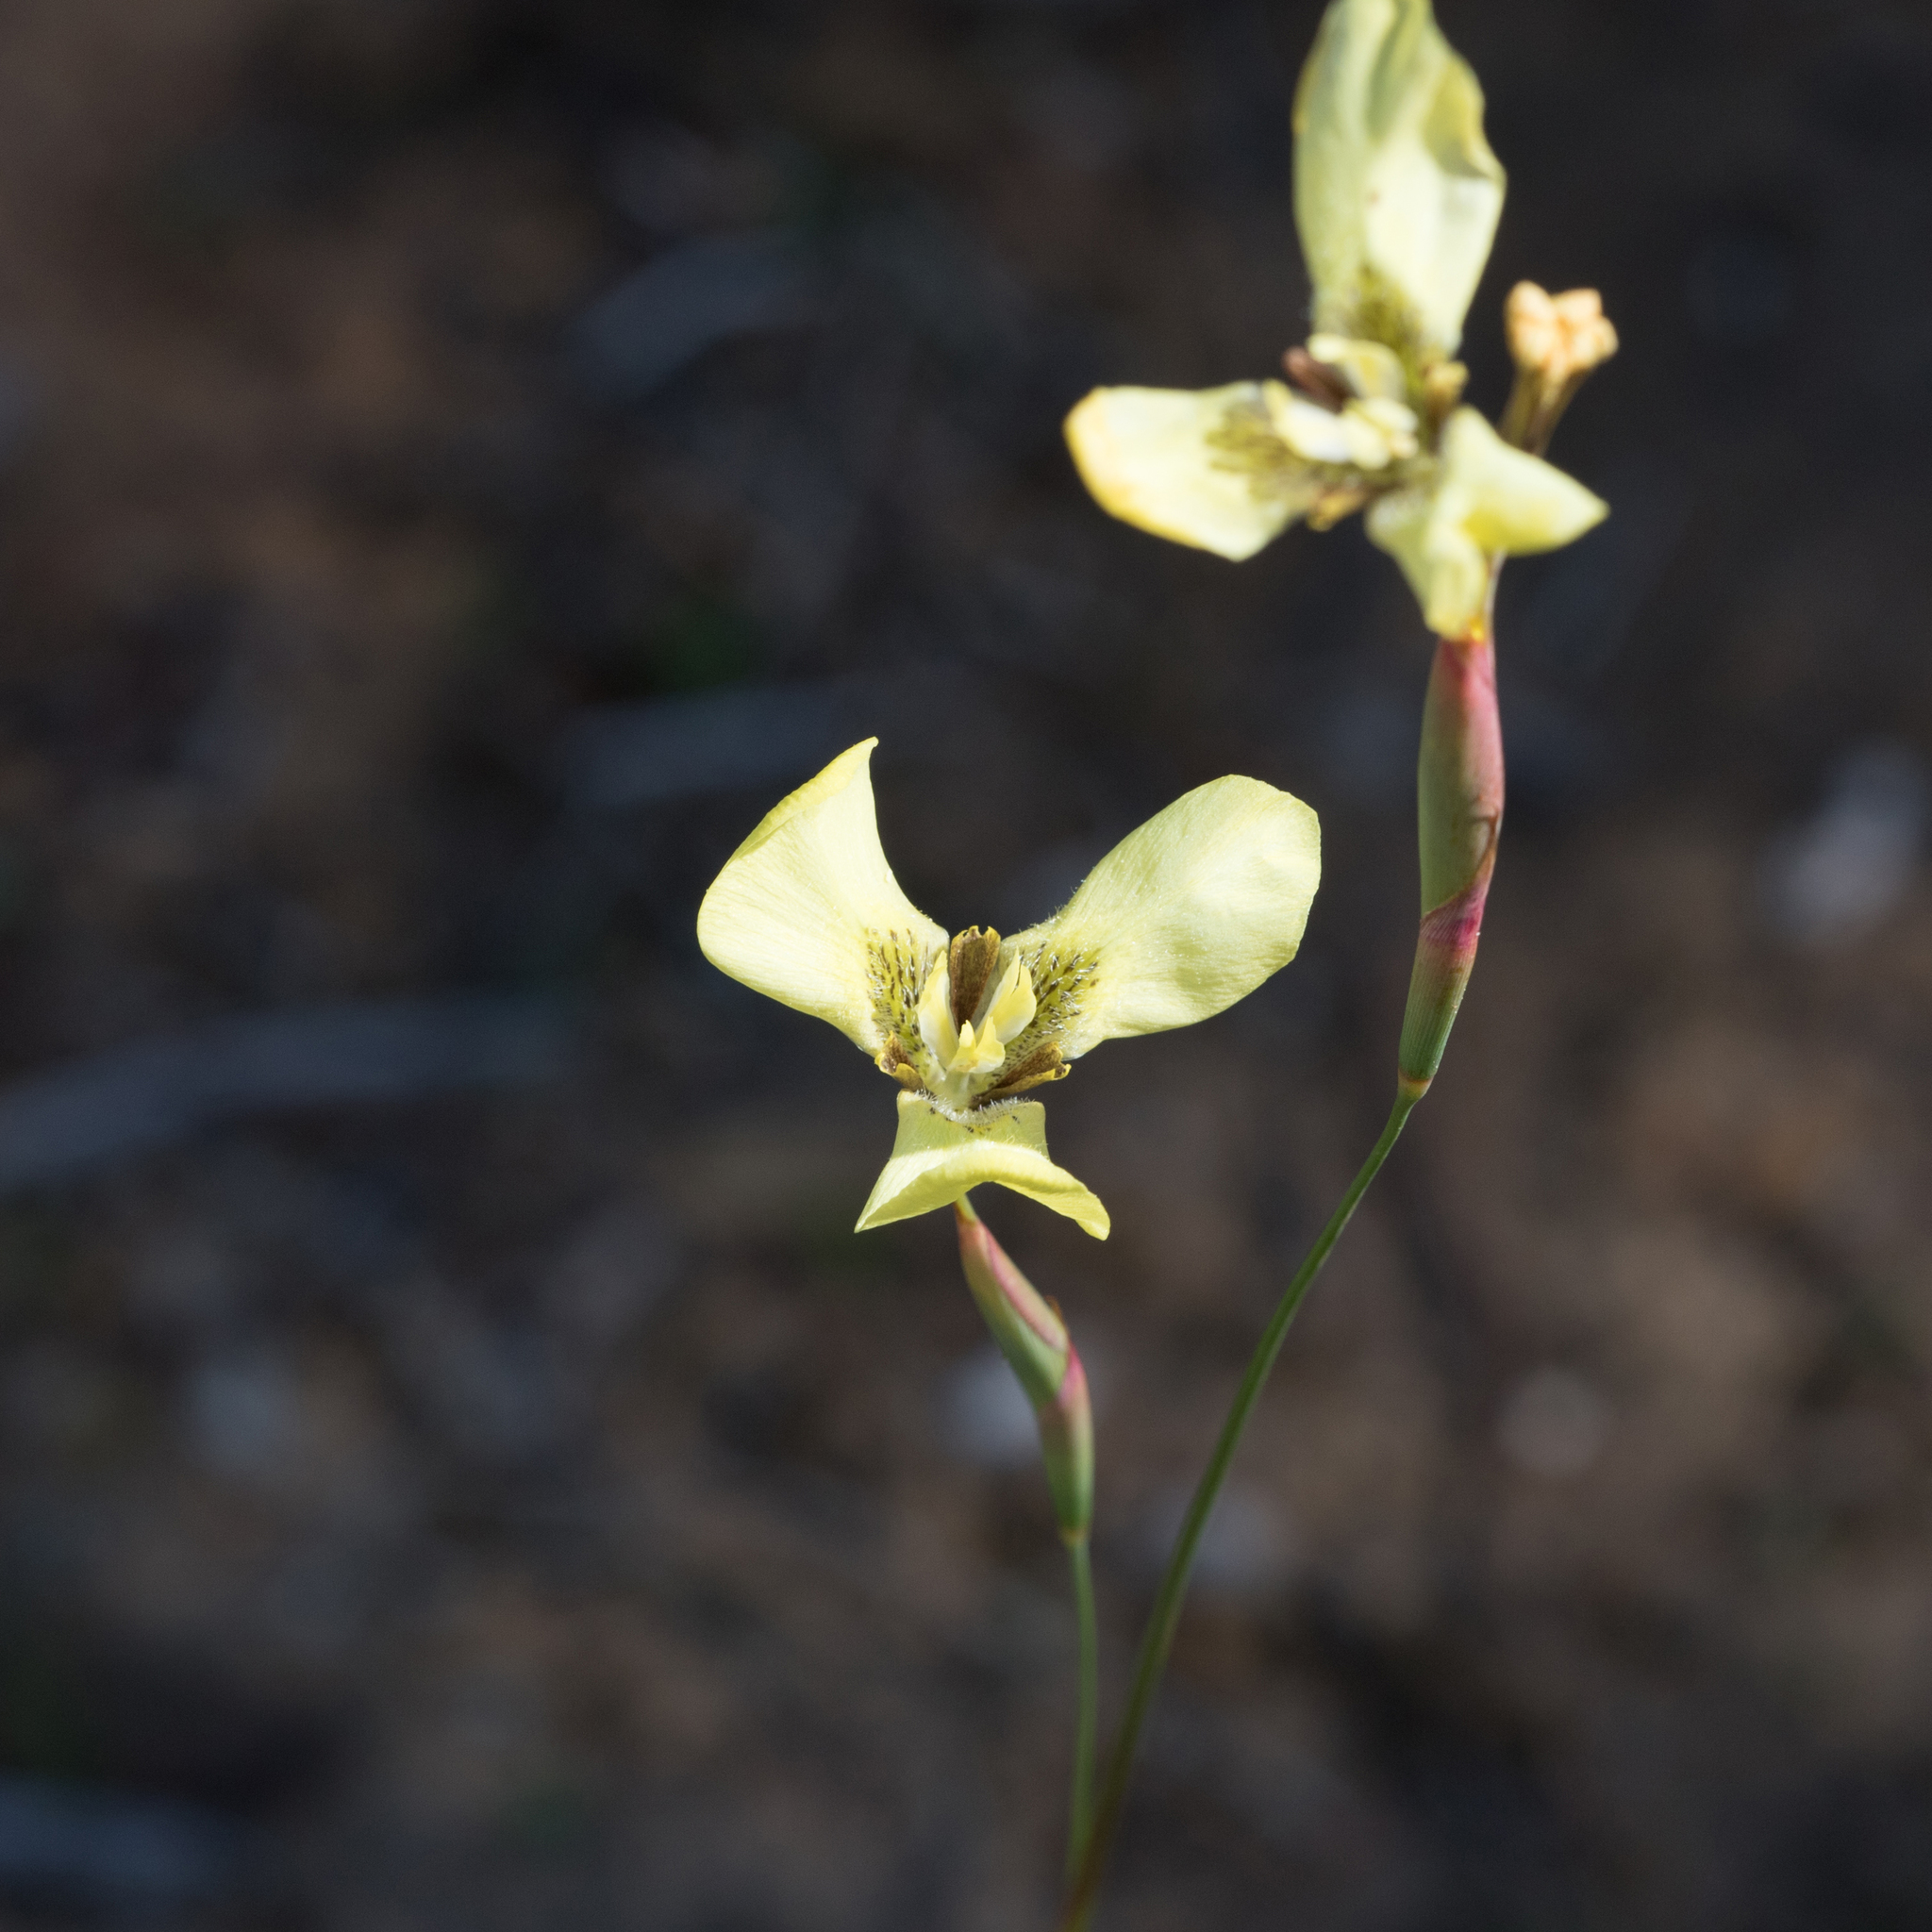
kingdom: Plantae
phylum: Tracheophyta
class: Liliopsida
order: Asparagales
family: Iridaceae
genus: Moraea
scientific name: Moraea bellendenii
